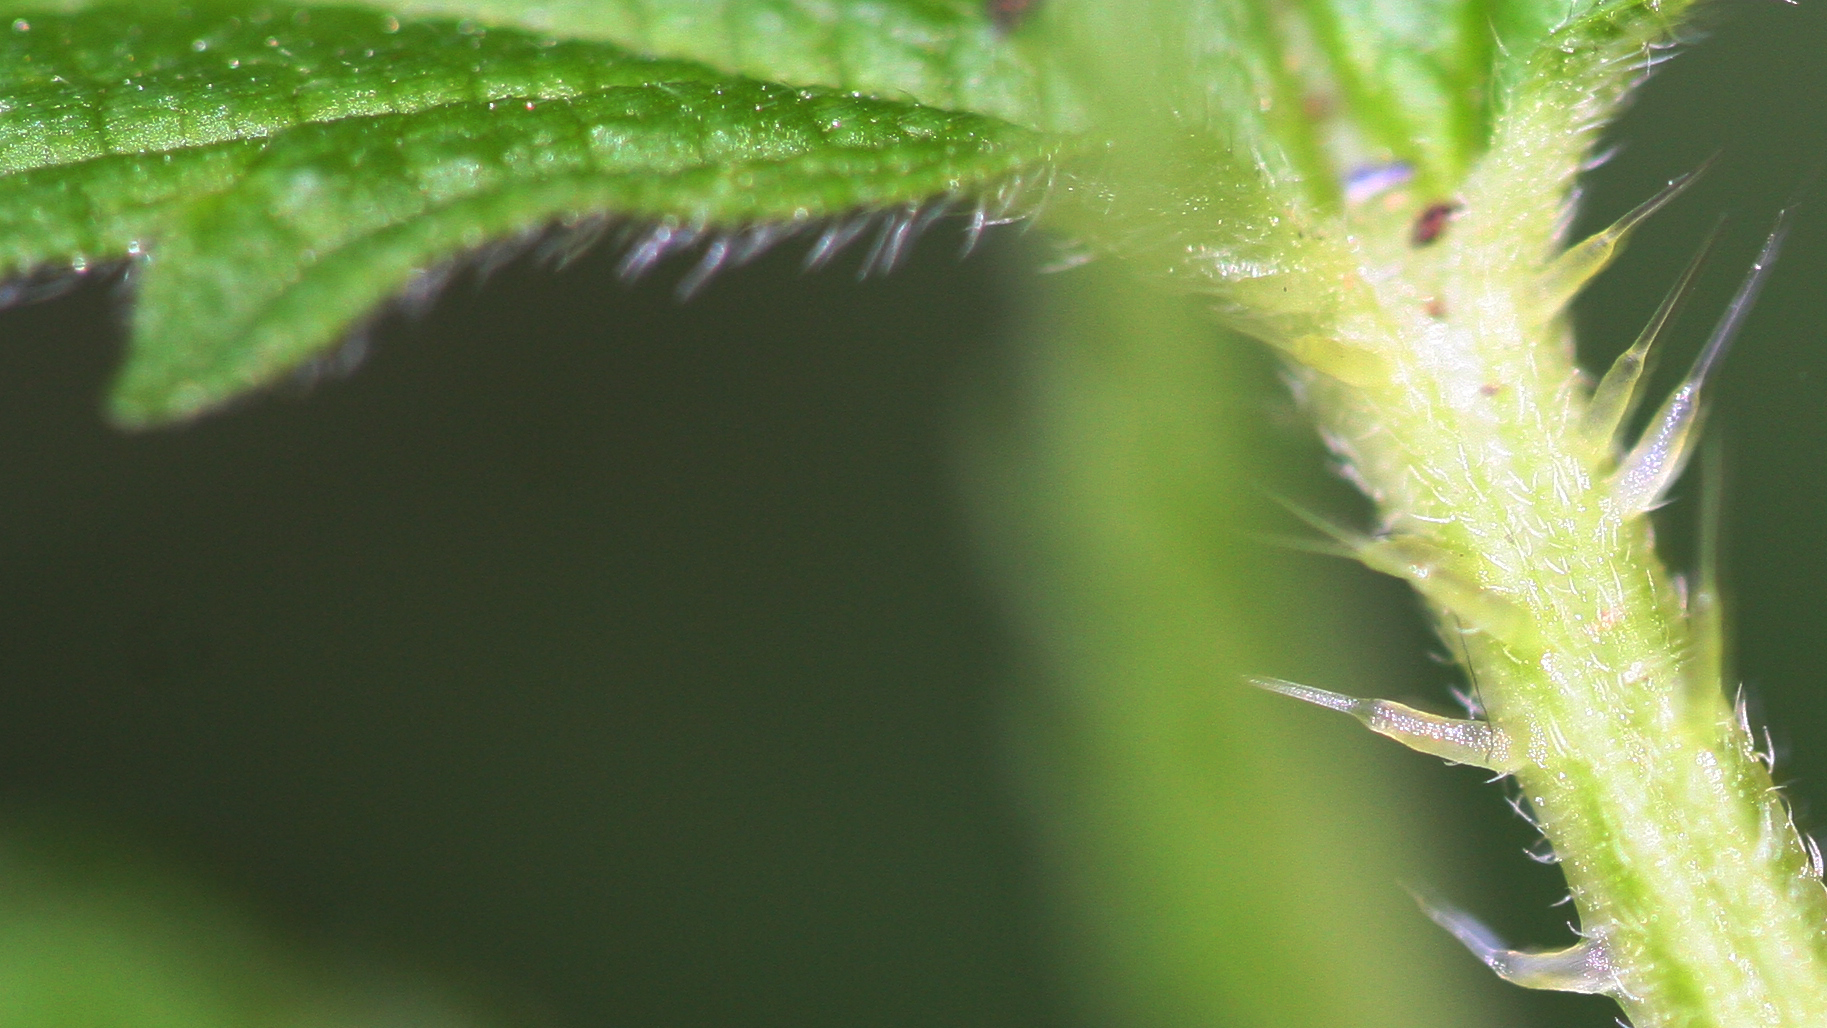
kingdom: Plantae
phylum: Tracheophyta
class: Magnoliopsida
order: Rosales
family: Urticaceae
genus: Urtica
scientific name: Urtica dioica
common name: Common nettle
